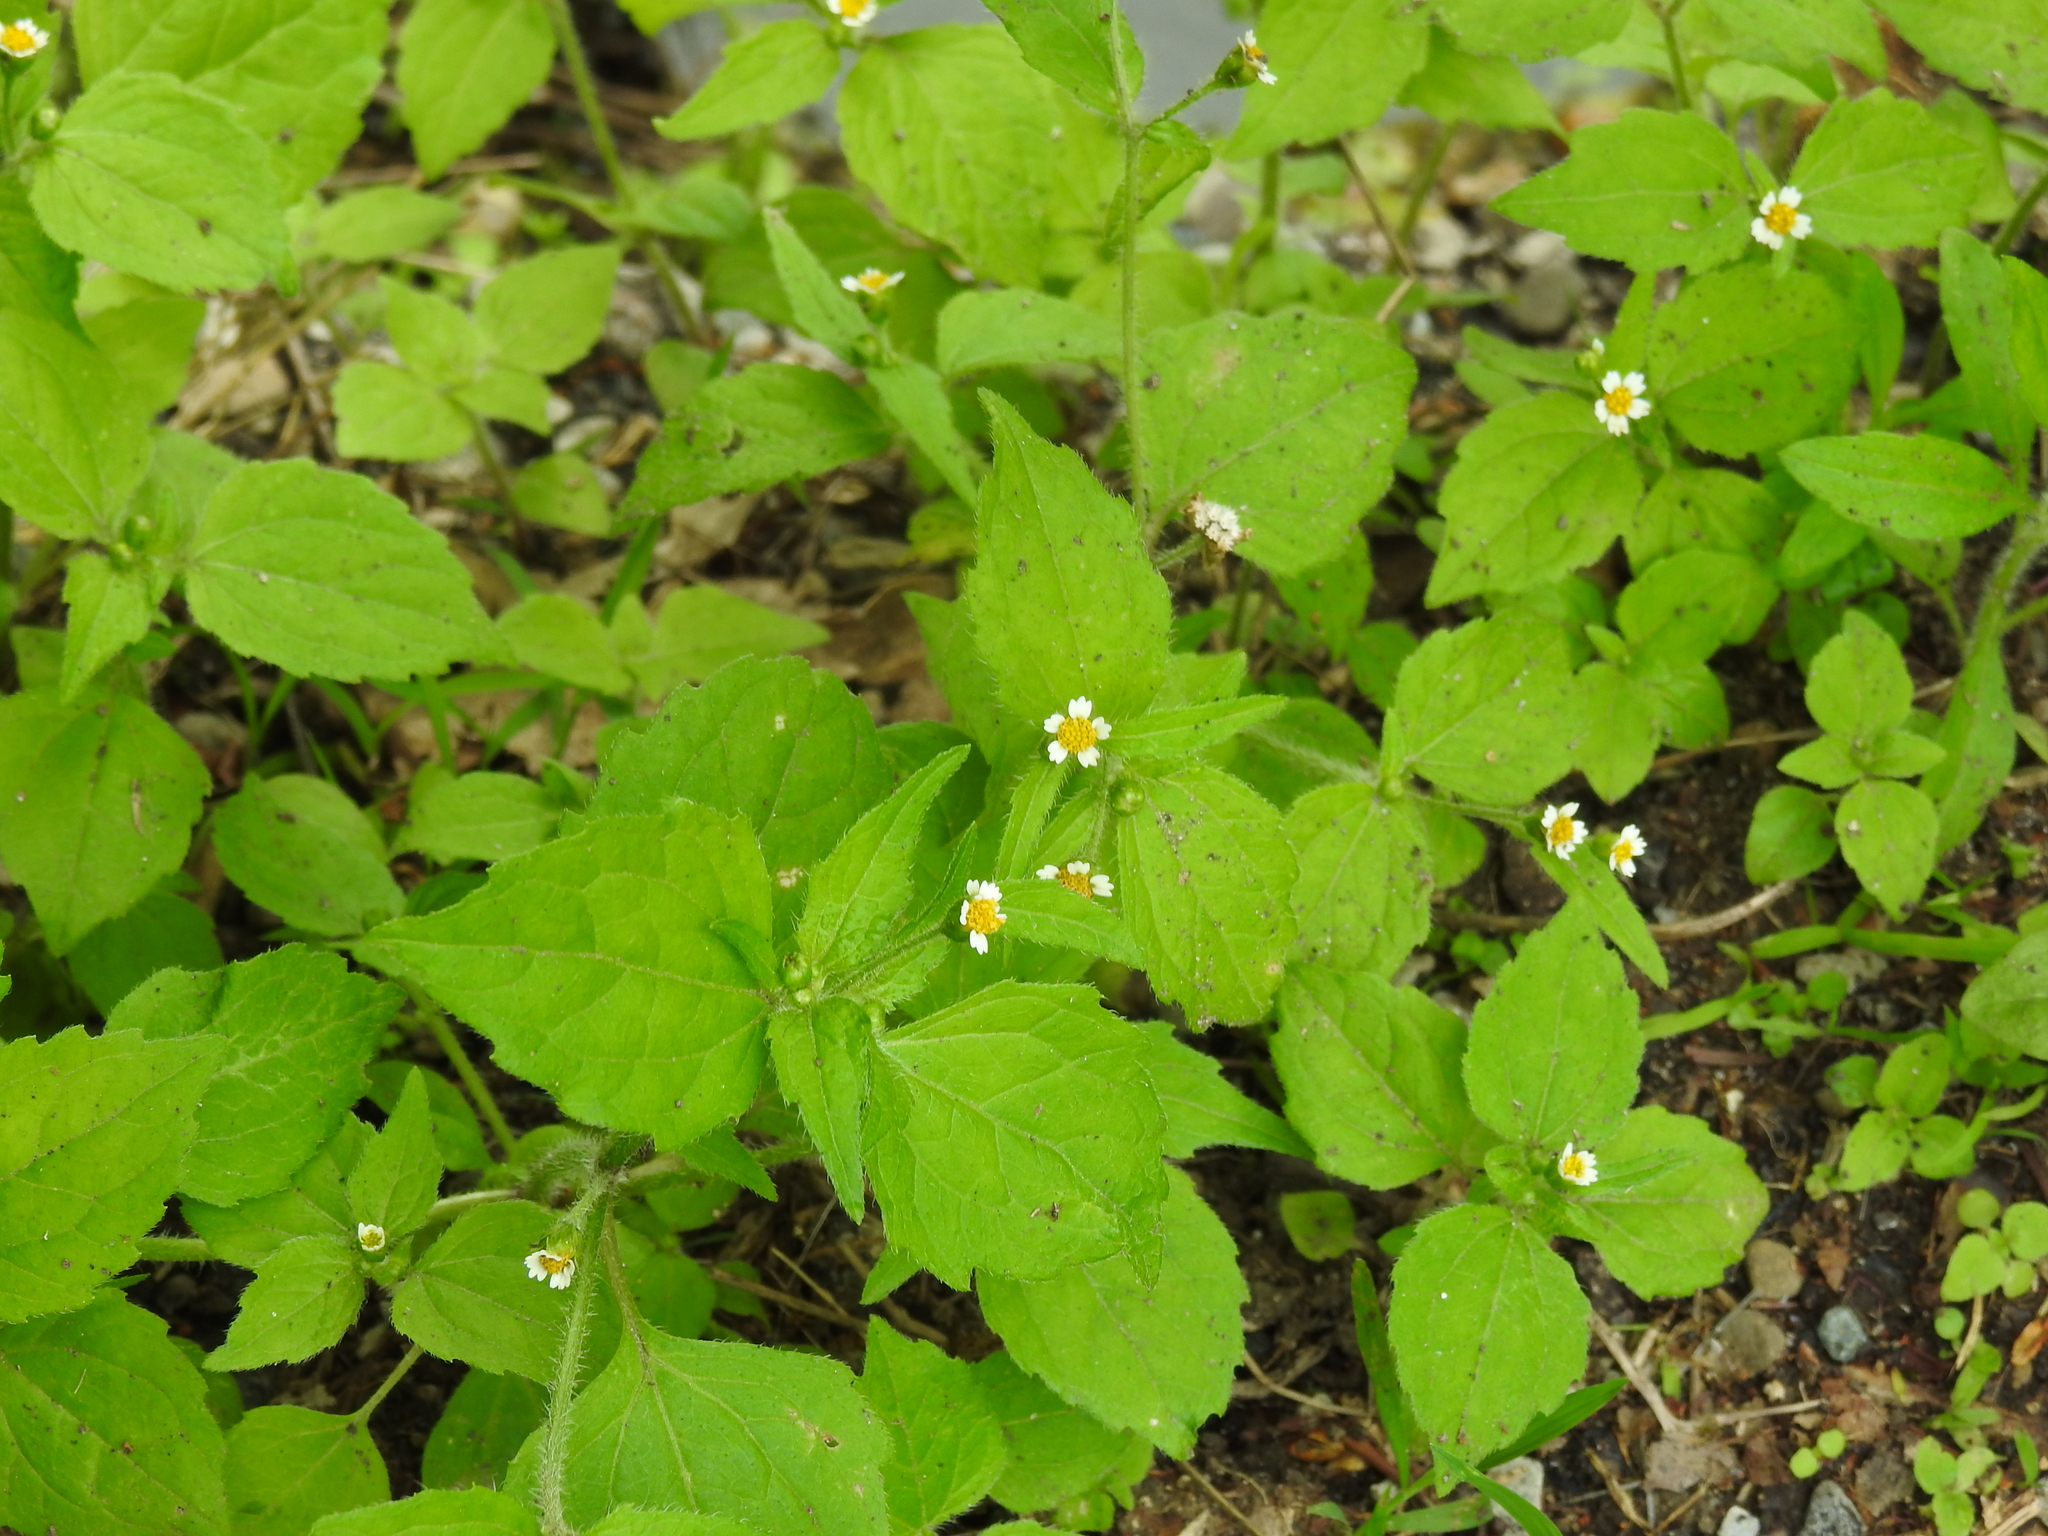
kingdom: Plantae
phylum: Tracheophyta
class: Magnoliopsida
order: Asterales
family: Asteraceae
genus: Galinsoga
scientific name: Galinsoga quadriradiata
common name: Shaggy soldier
